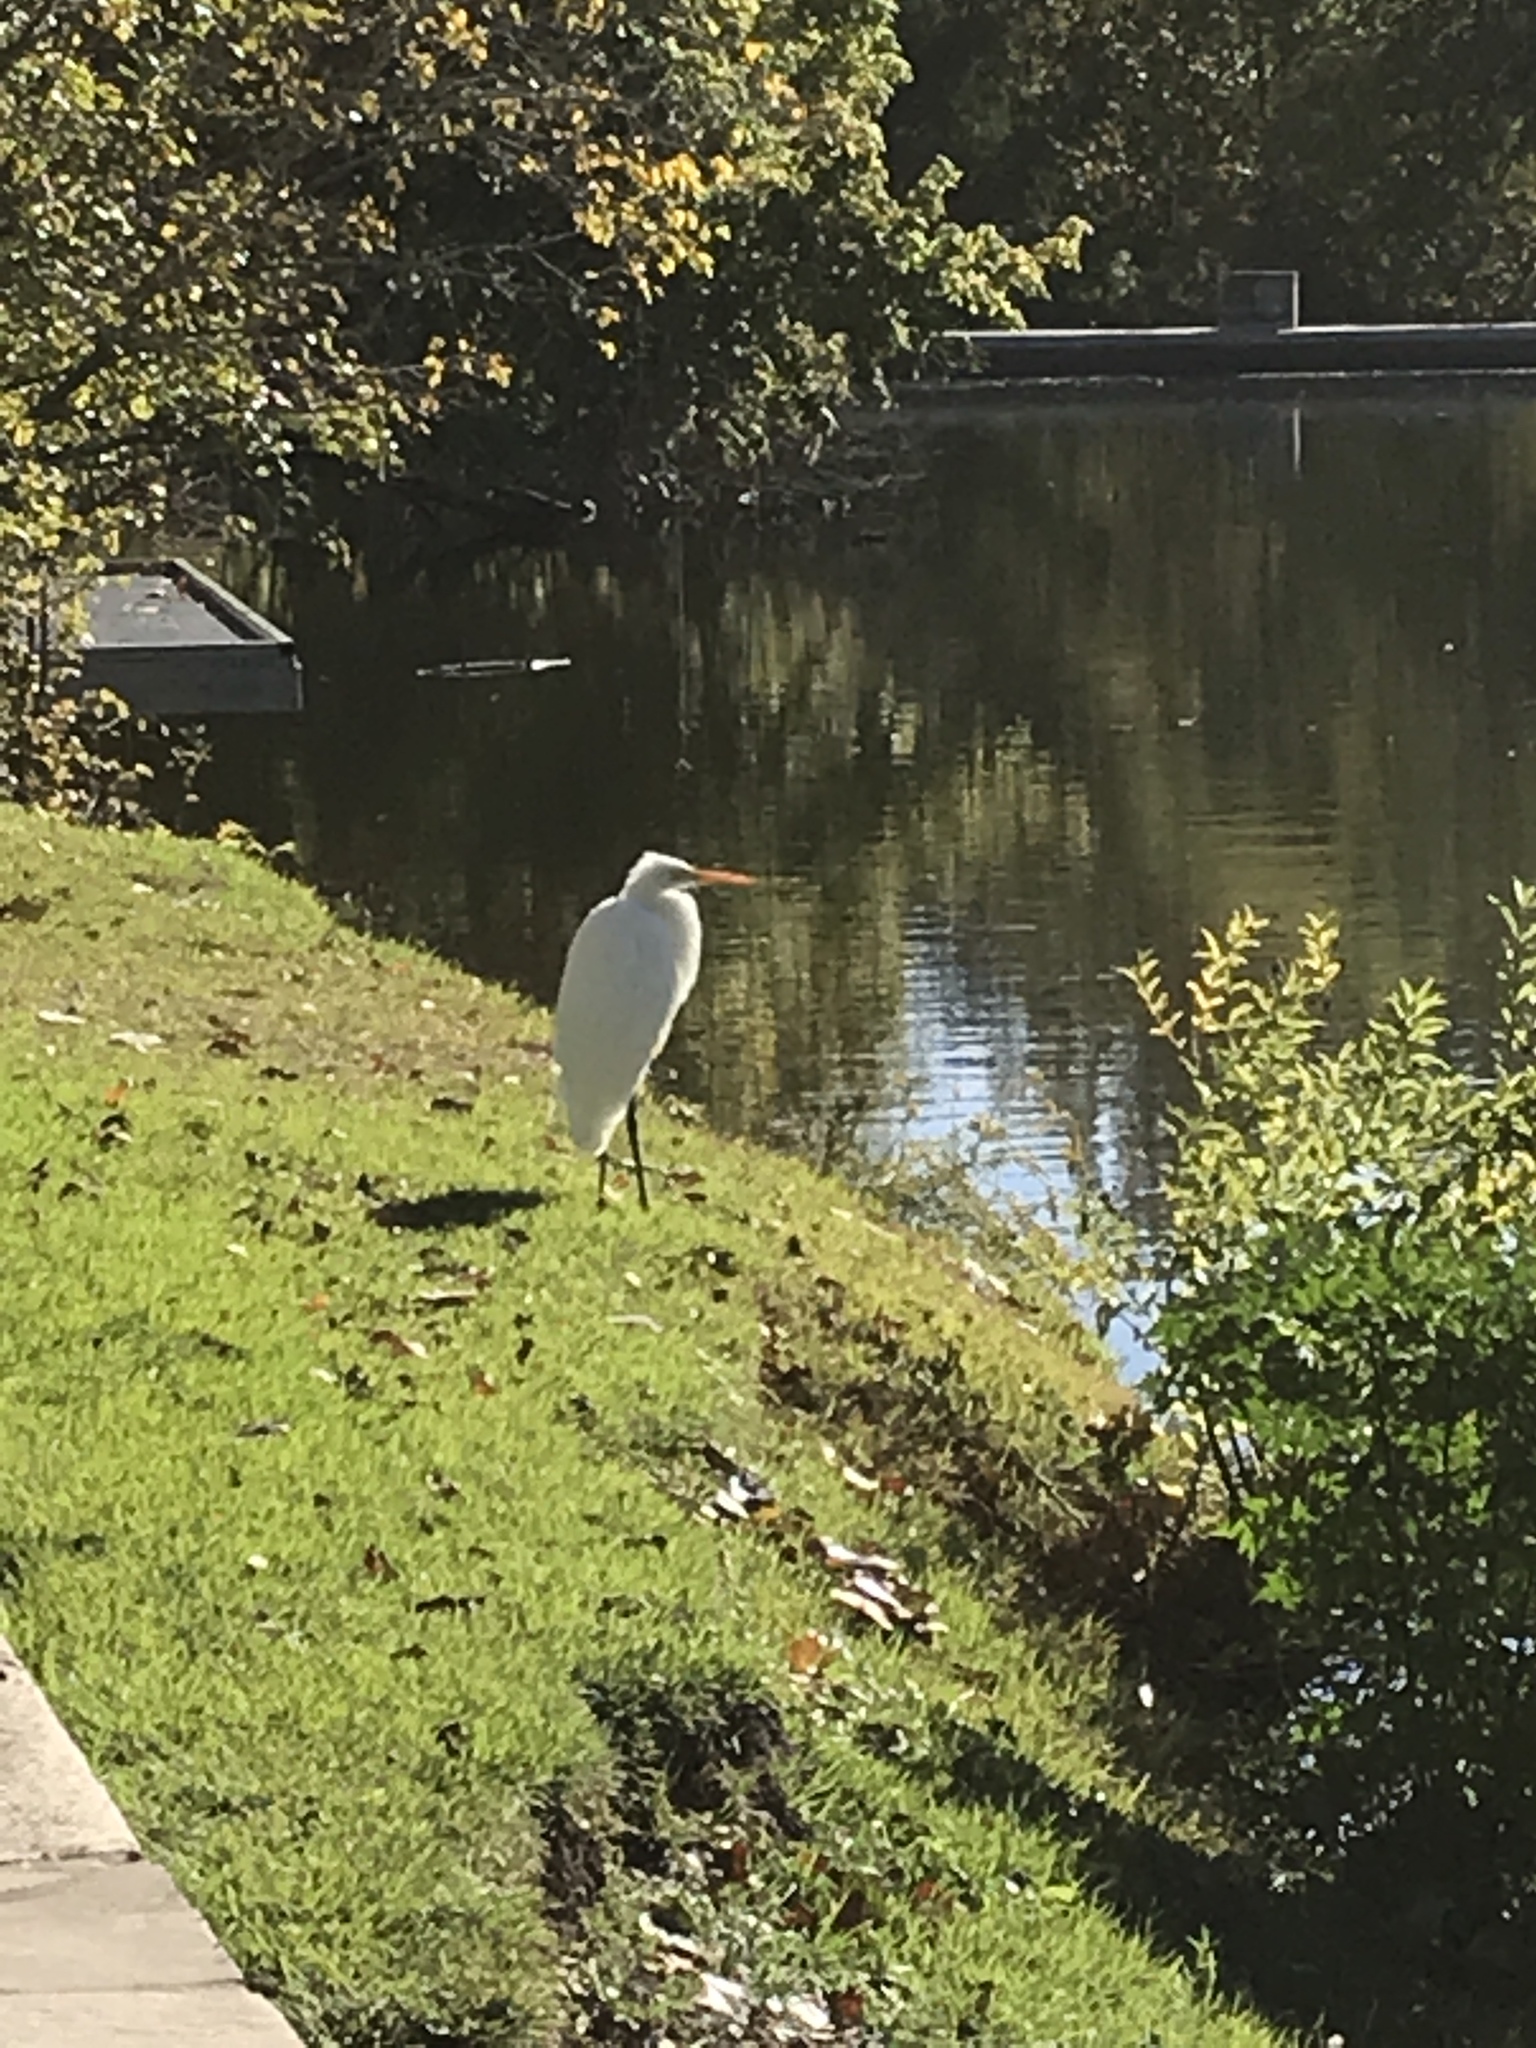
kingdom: Animalia
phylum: Chordata
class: Aves
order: Pelecaniformes
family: Ardeidae
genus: Ardea
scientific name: Ardea alba
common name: Great egret
